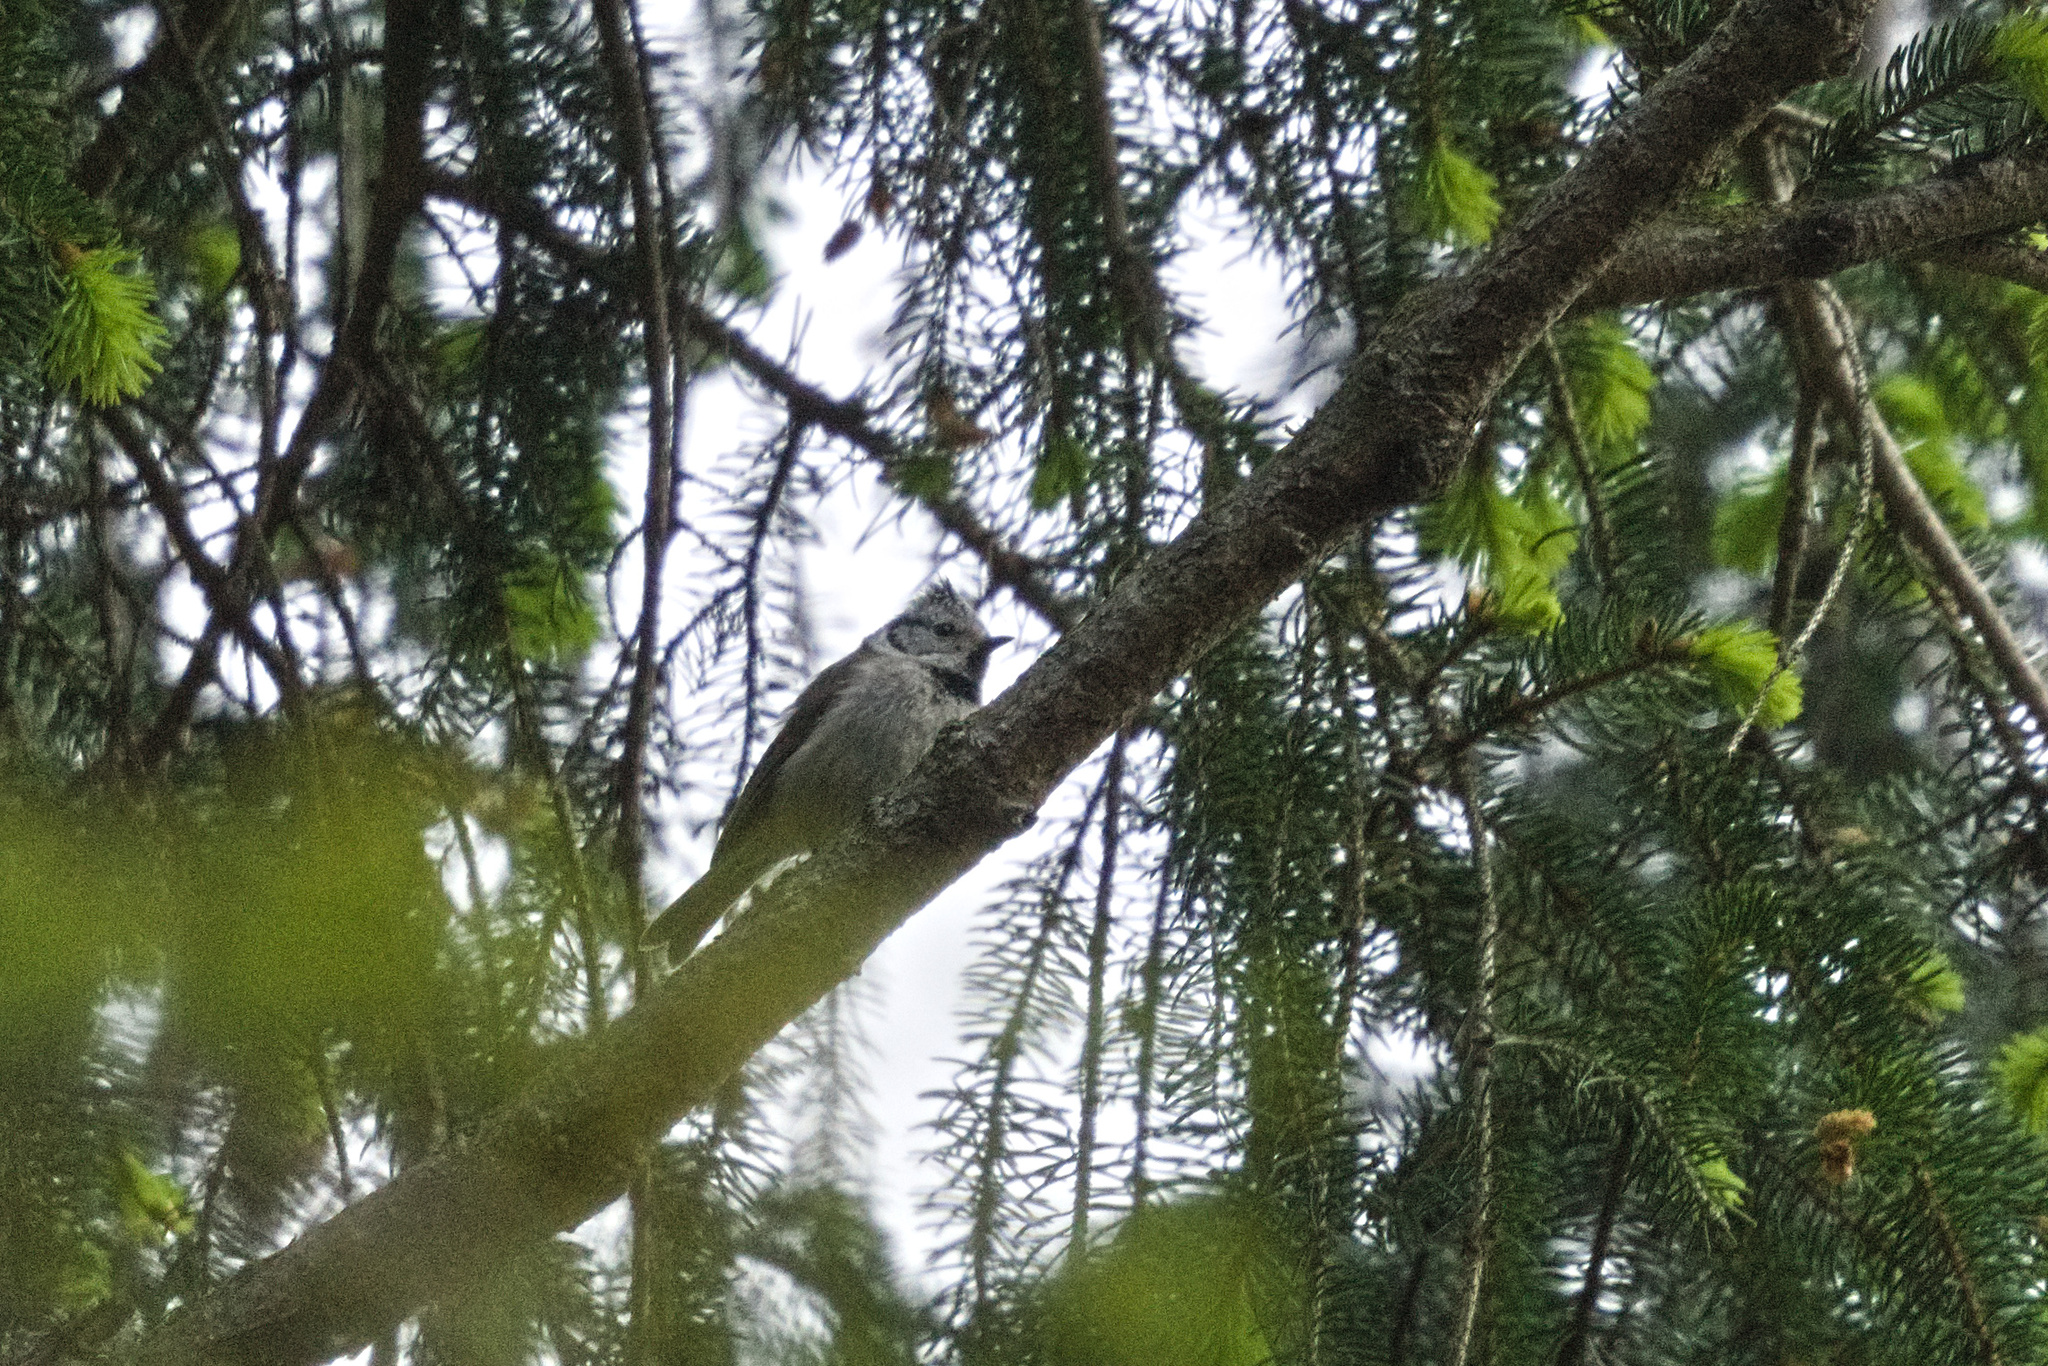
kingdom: Animalia
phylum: Chordata
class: Aves
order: Passeriformes
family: Paridae
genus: Lophophanes
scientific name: Lophophanes cristatus
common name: European crested tit
